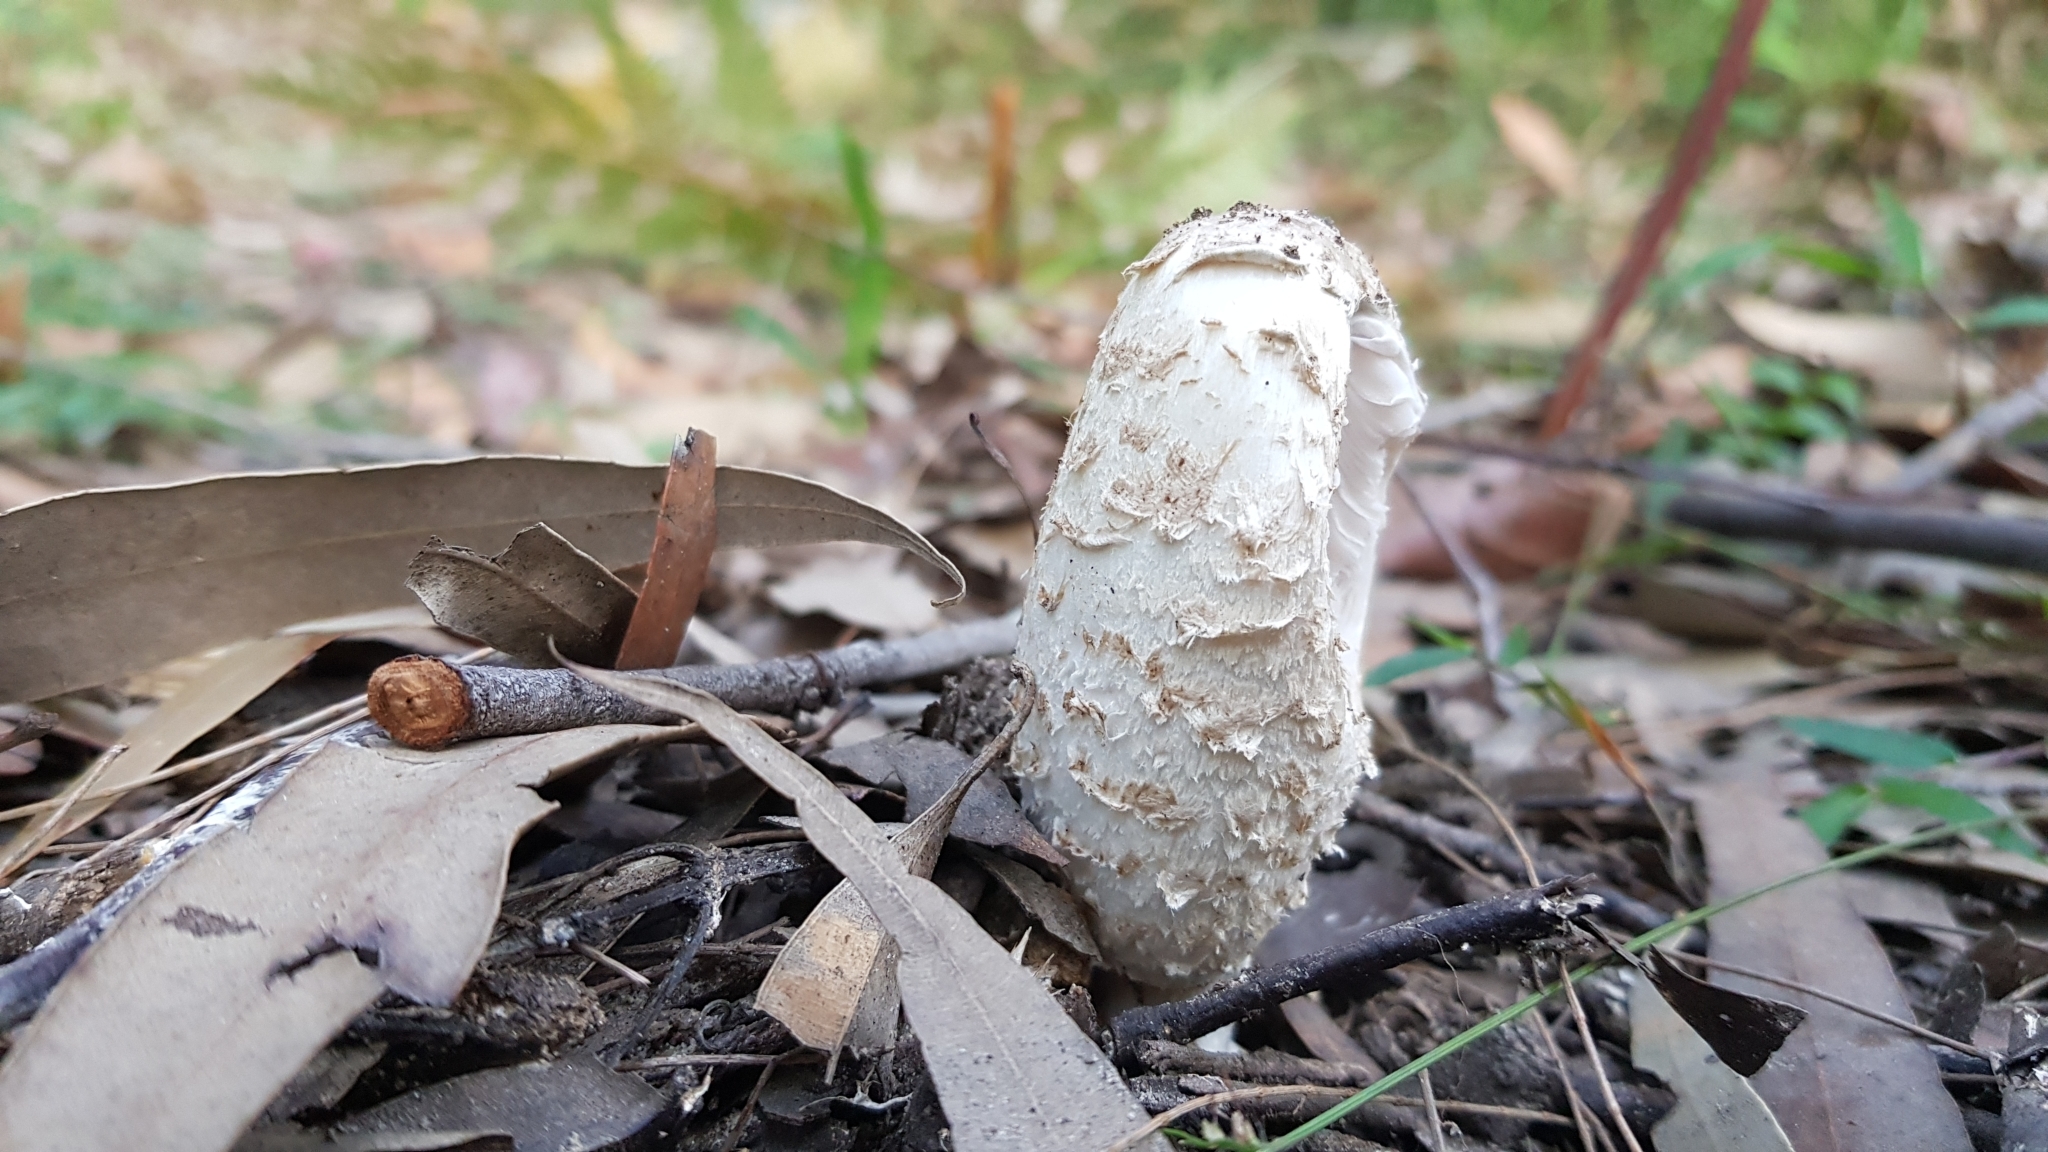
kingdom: Fungi
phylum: Basidiomycota
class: Agaricomycetes
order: Agaricales
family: Agaricaceae
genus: Coprinus
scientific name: Coprinus comatus
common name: Lawyer's wig
